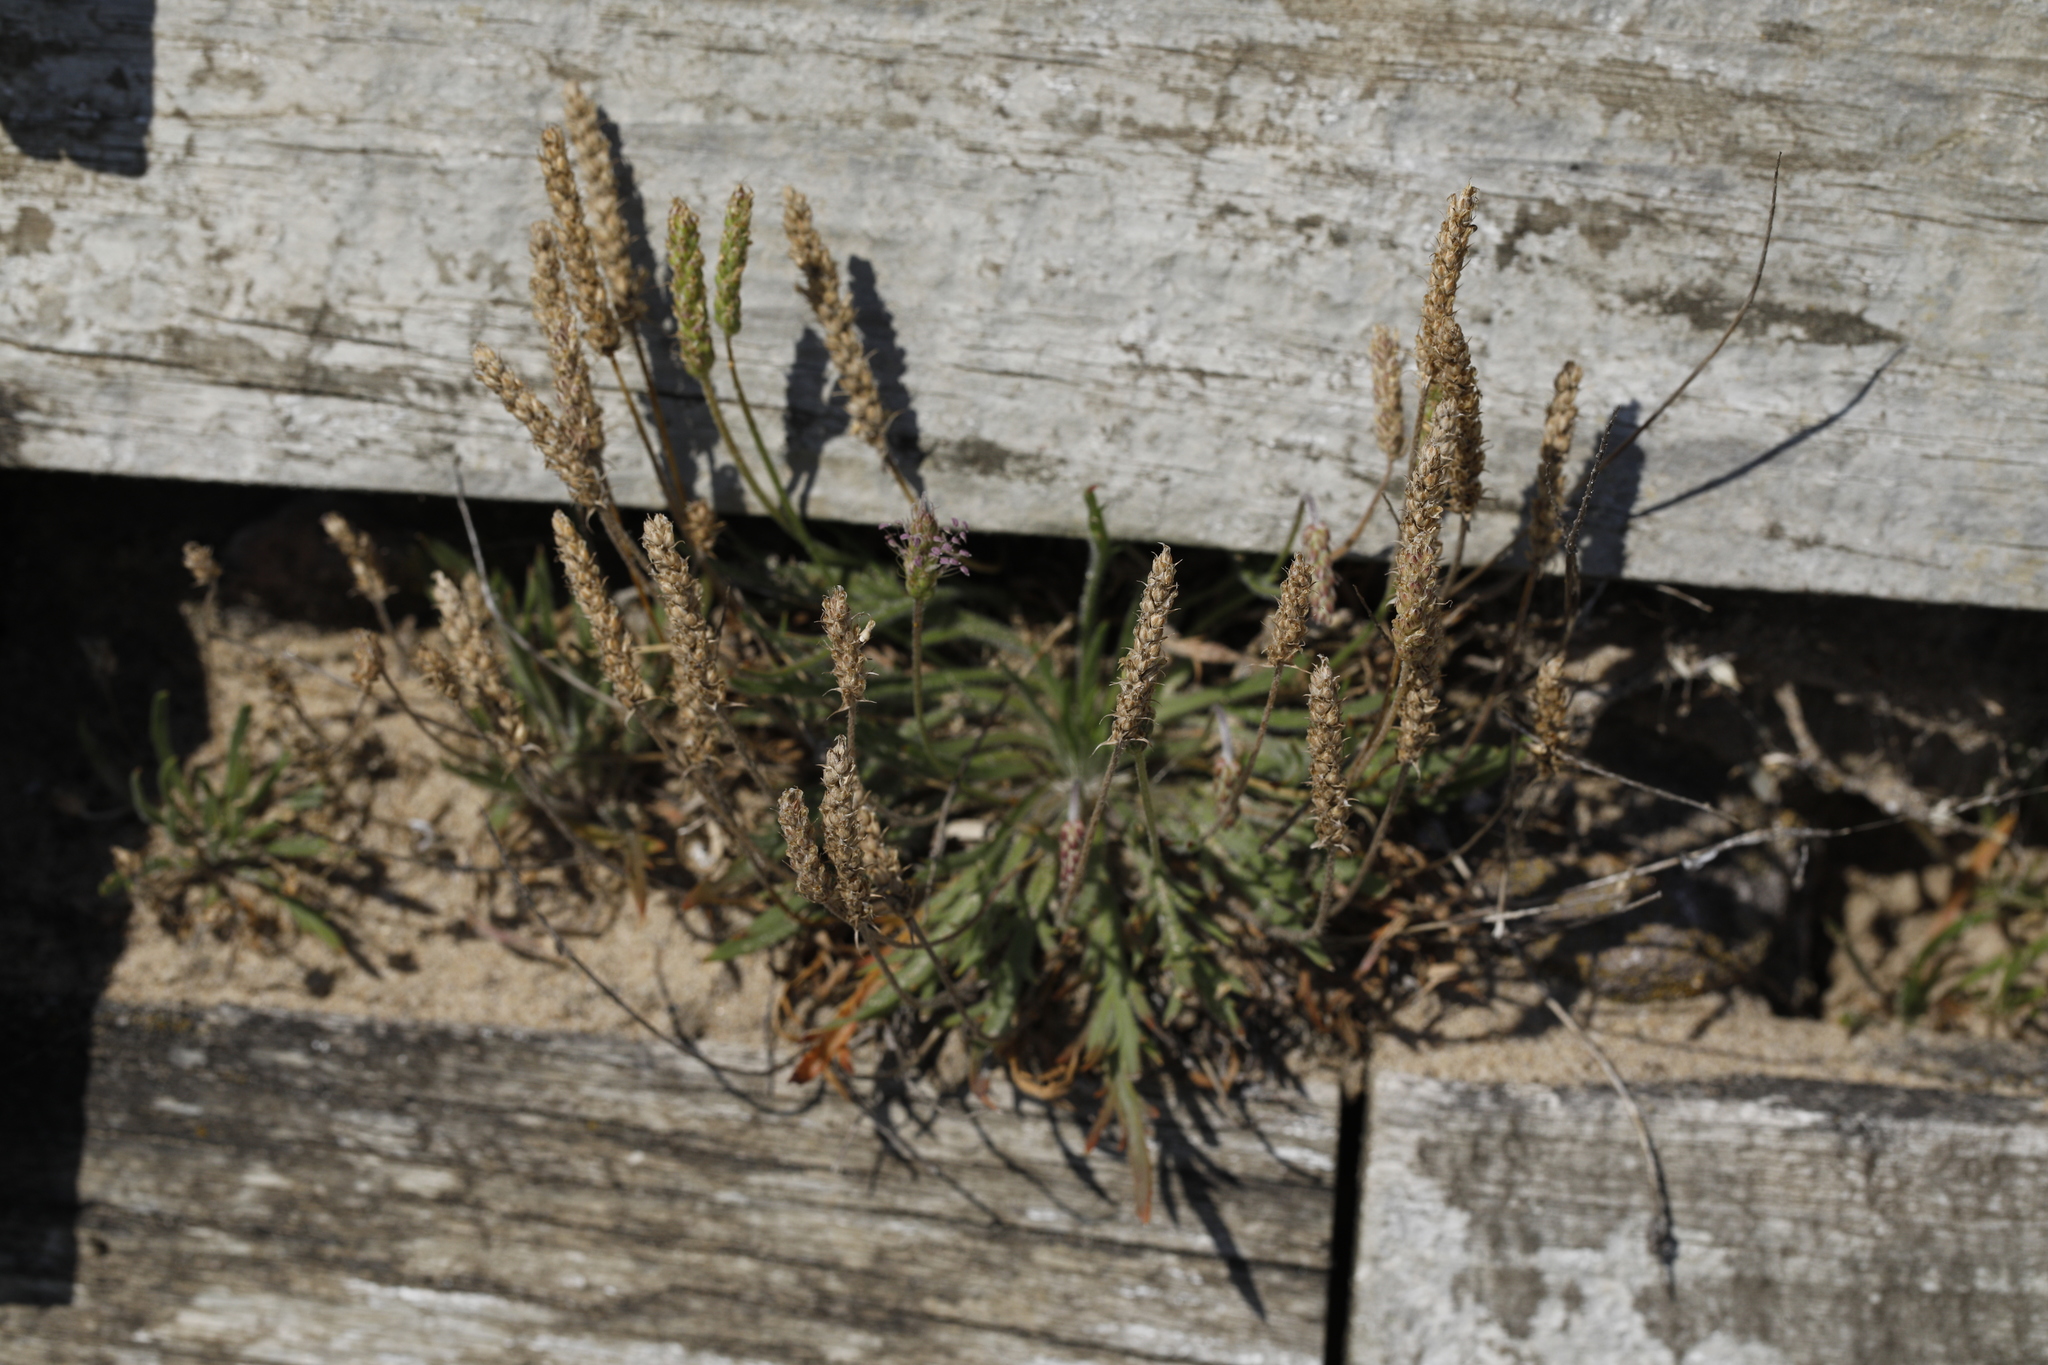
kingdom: Plantae
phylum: Tracheophyta
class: Magnoliopsida
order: Lamiales
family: Plantaginaceae
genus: Plantago
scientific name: Plantago coronopus
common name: Buck's-horn plantain
